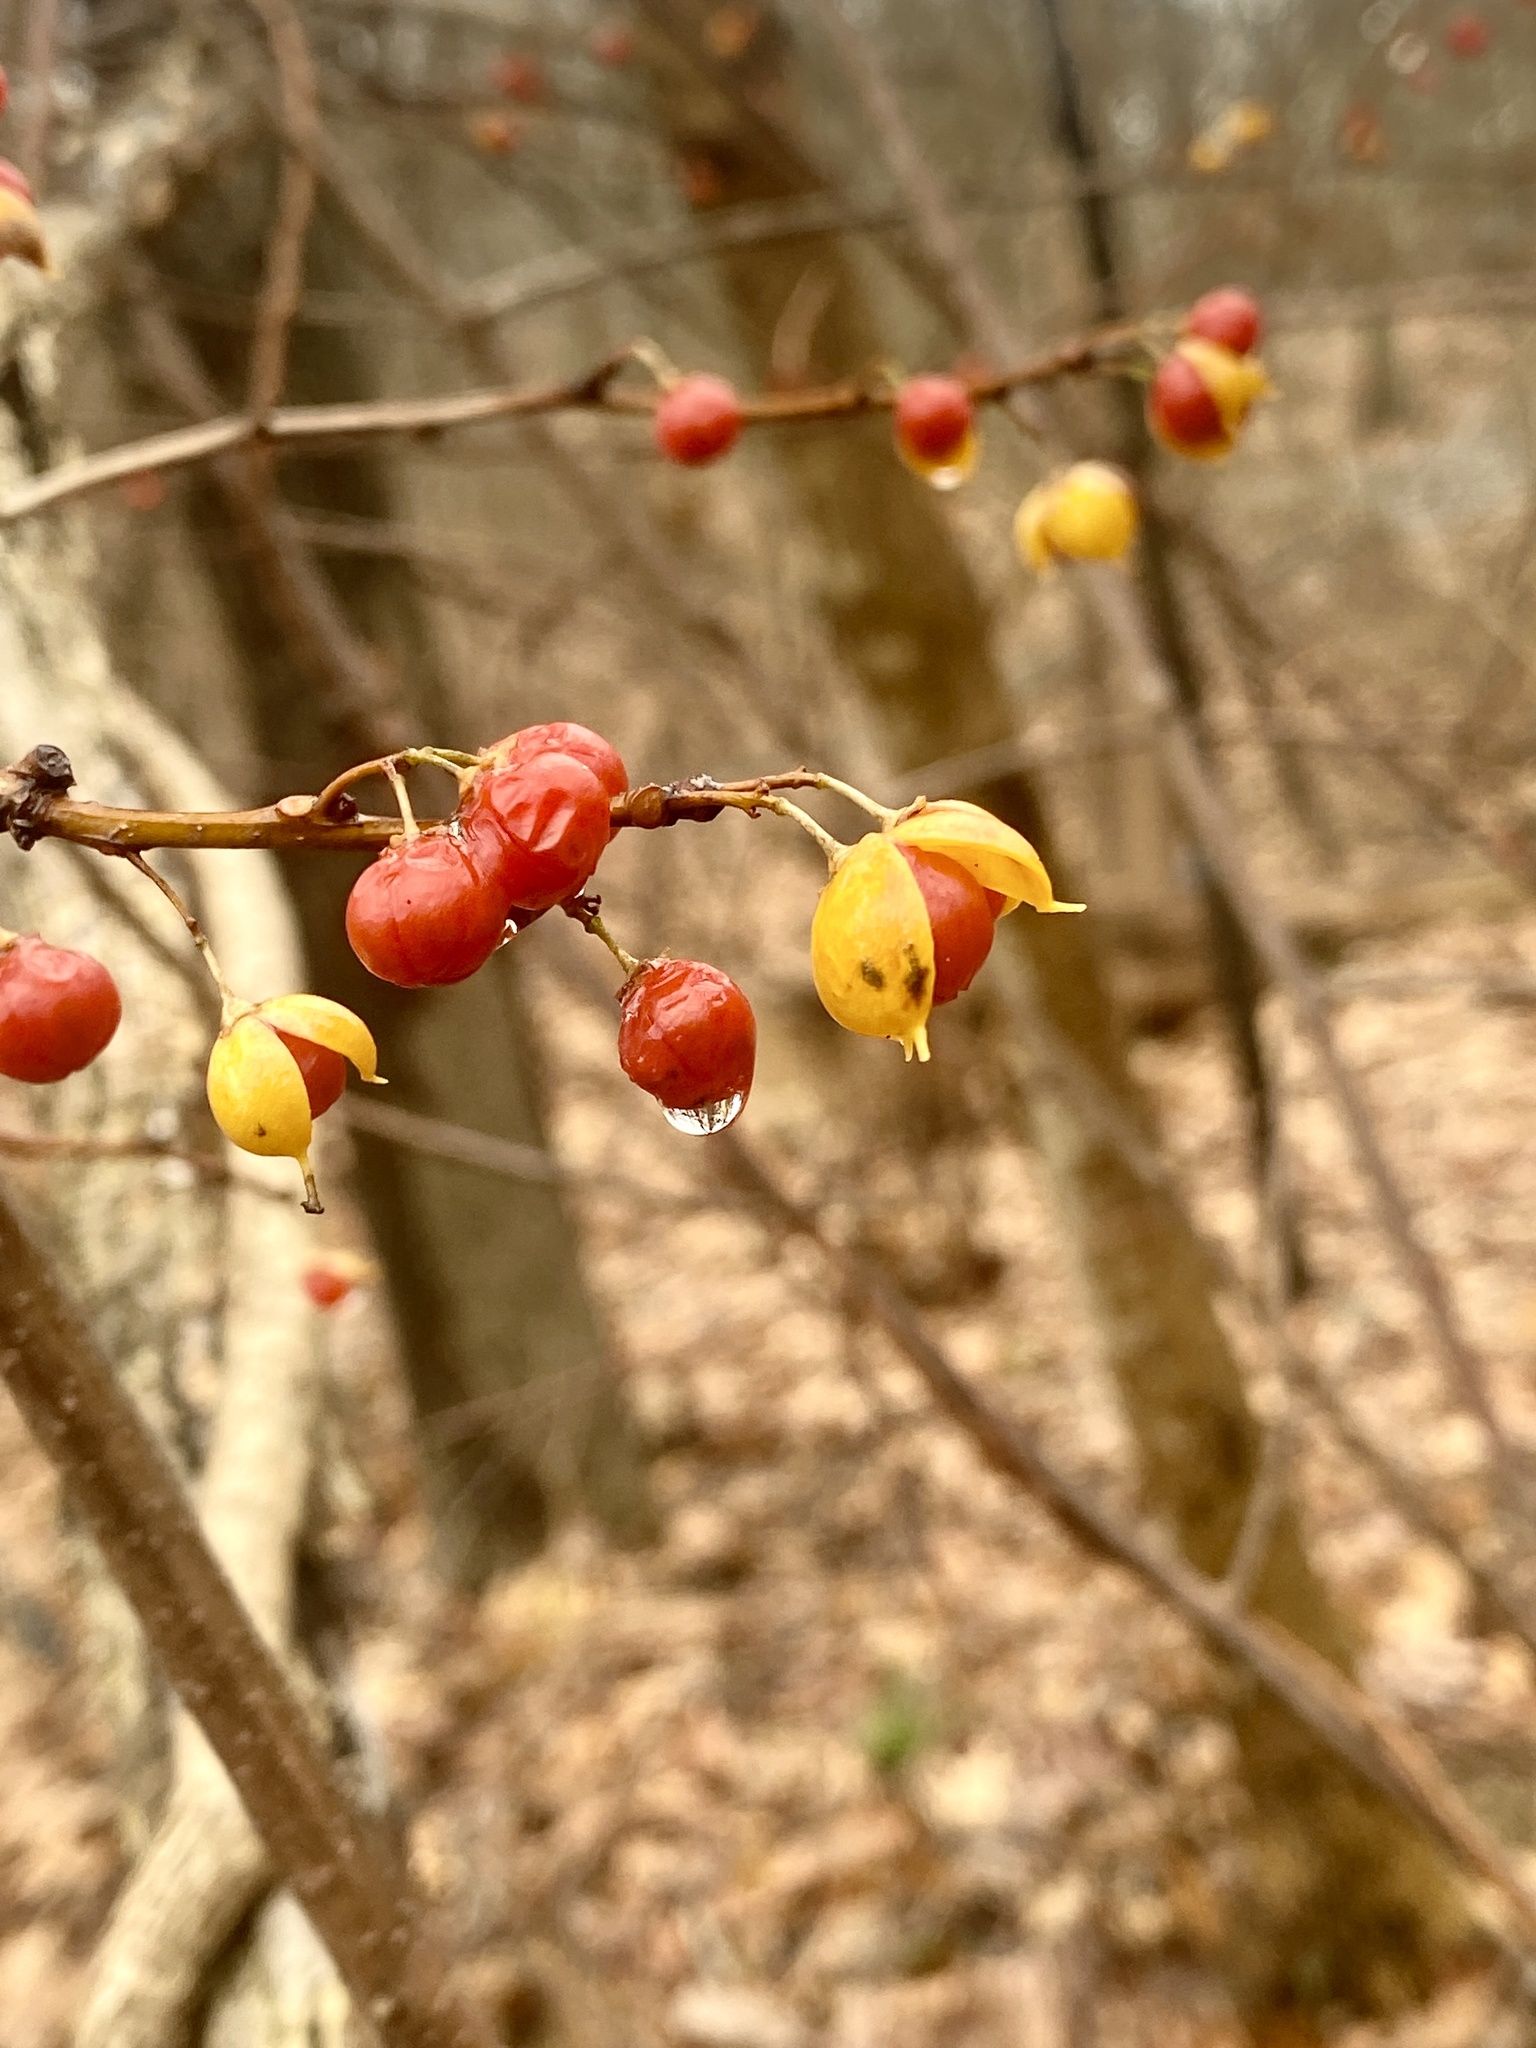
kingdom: Plantae
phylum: Tracheophyta
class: Magnoliopsida
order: Celastrales
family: Celastraceae
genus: Celastrus
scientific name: Celastrus orbiculatus
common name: Oriental bittersweet
